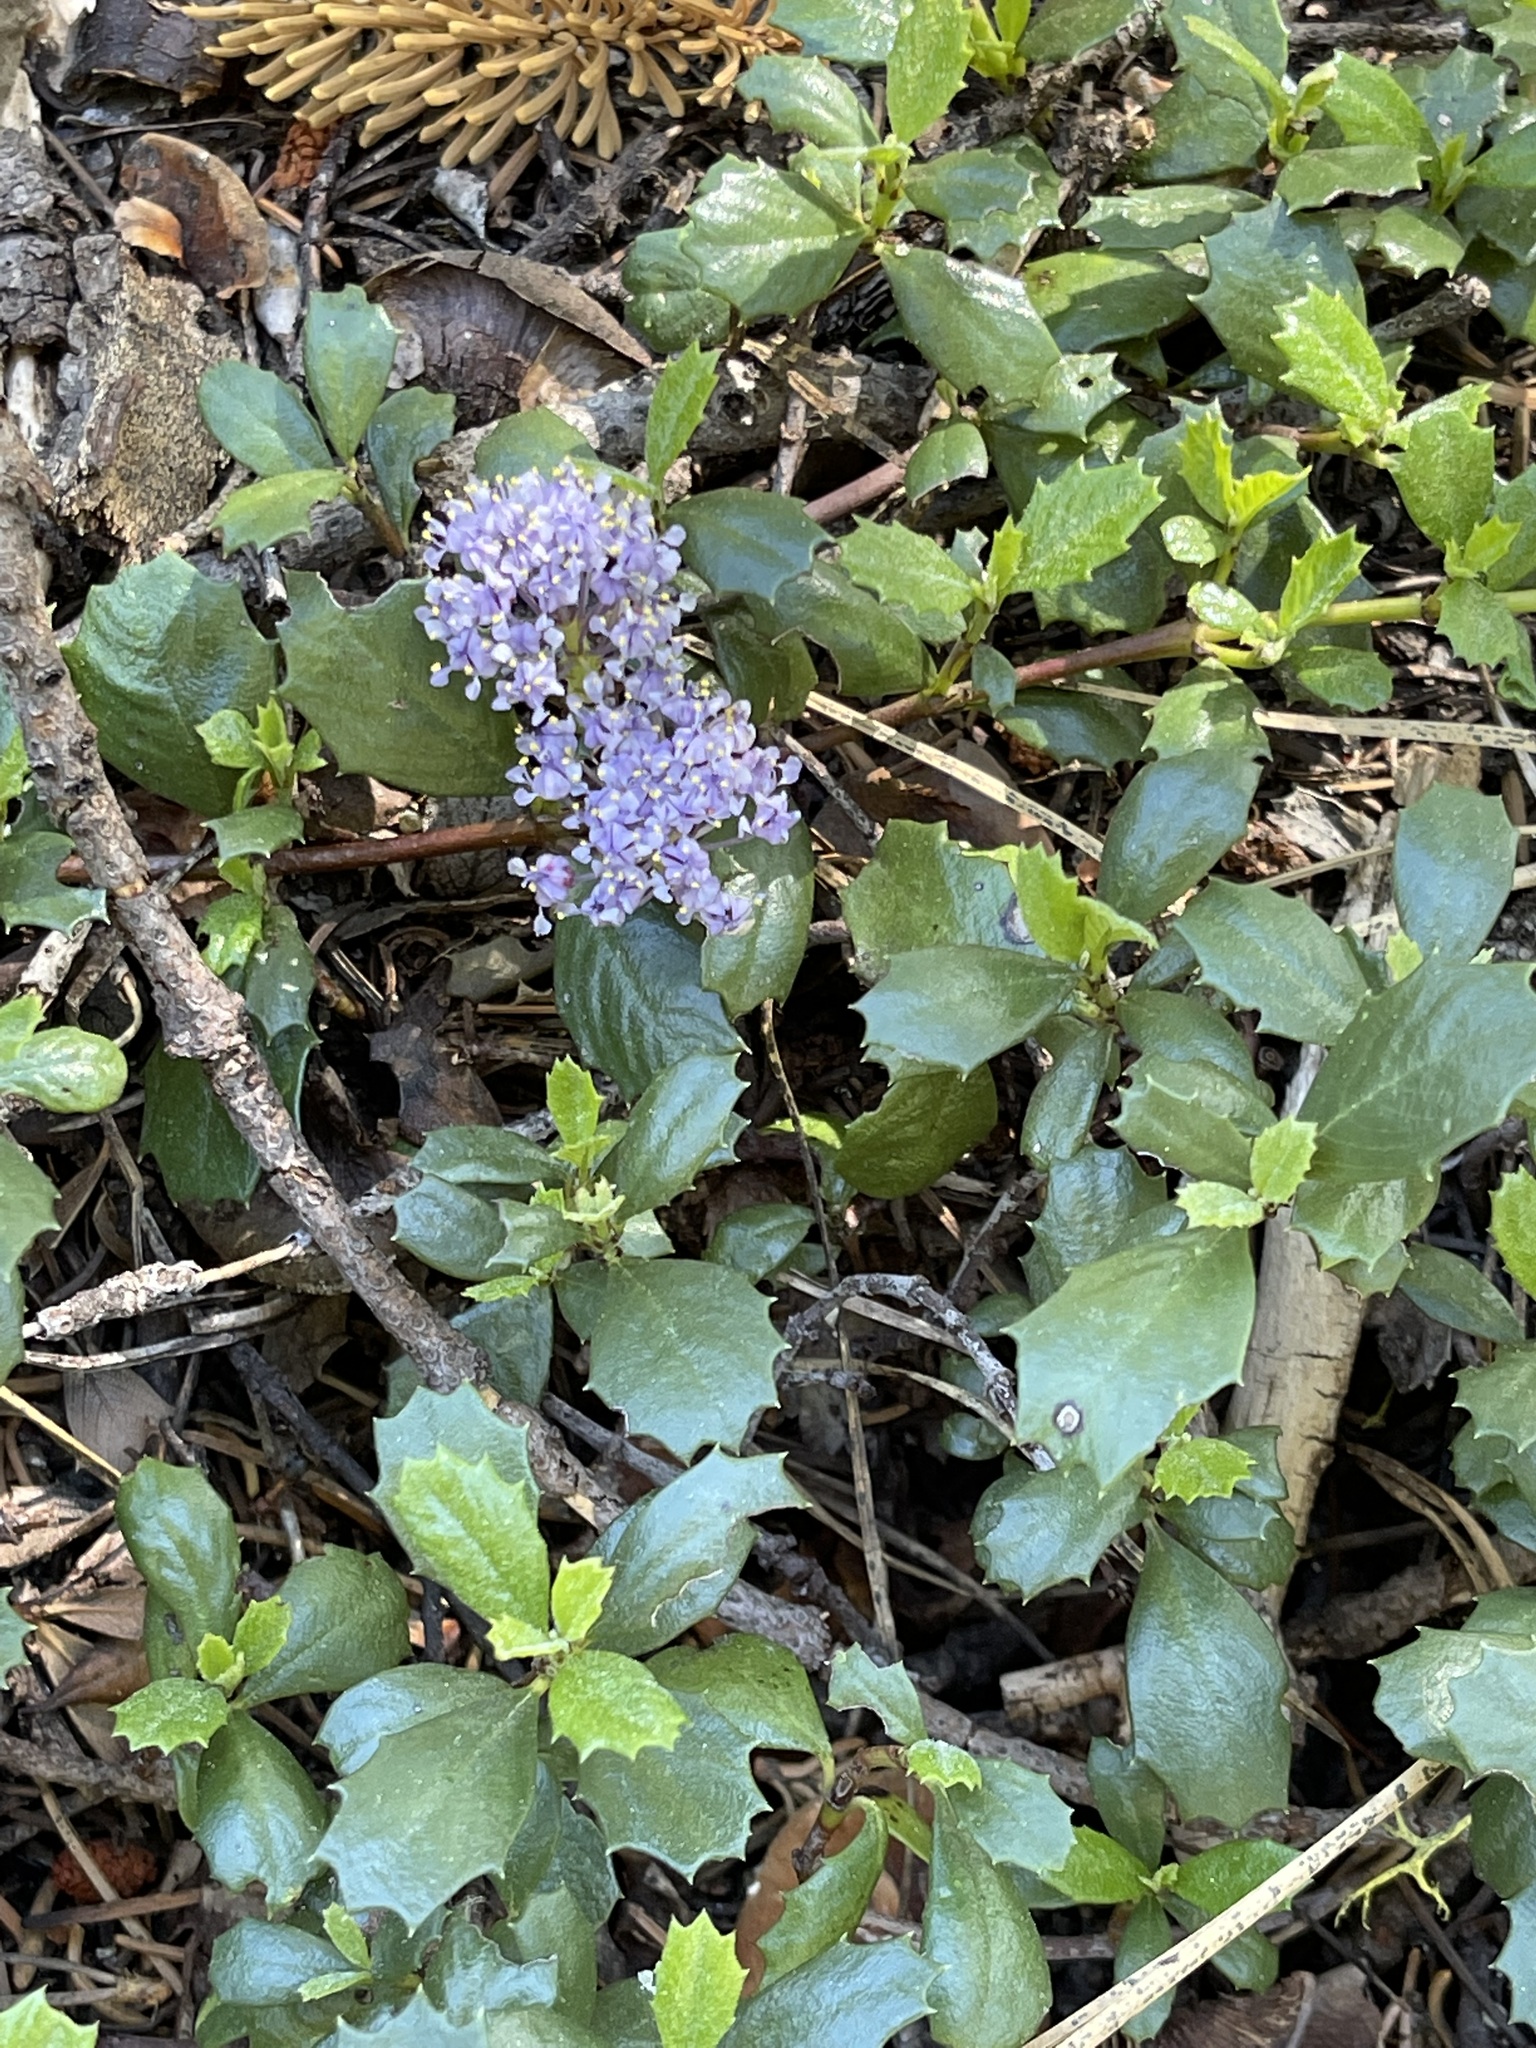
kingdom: Plantae
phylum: Tracheophyta
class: Magnoliopsida
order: Rosales
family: Rhamnaceae
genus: Ceanothus
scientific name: Ceanothus prostratus
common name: Mahala-mat
